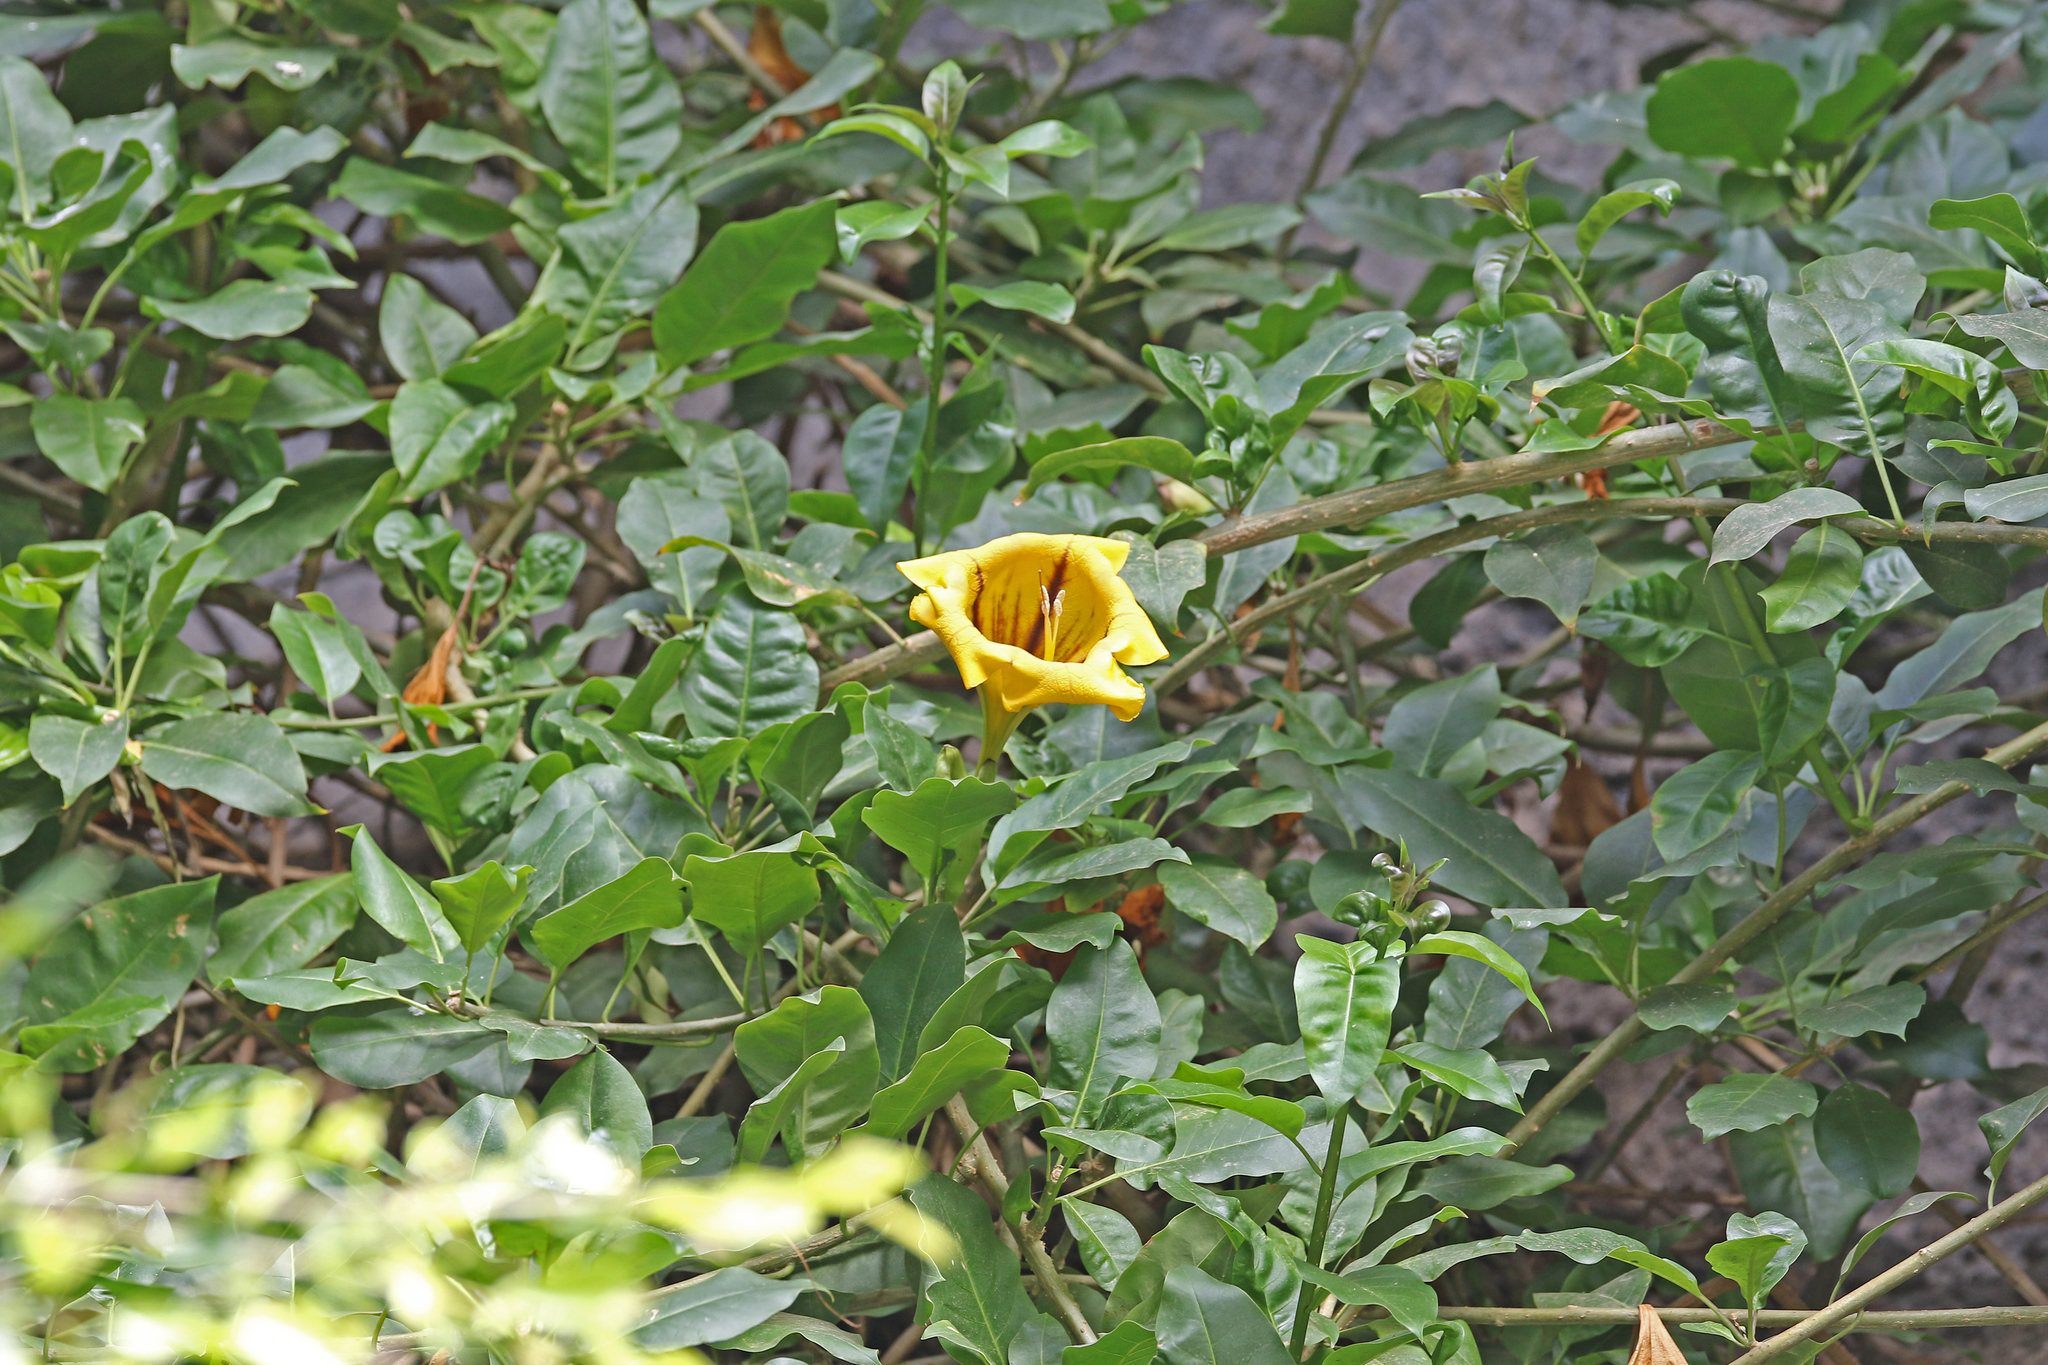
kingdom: Plantae
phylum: Tracheophyta
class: Magnoliopsida
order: Solanales
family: Solanaceae
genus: Solandra
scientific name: Solandra maxima
